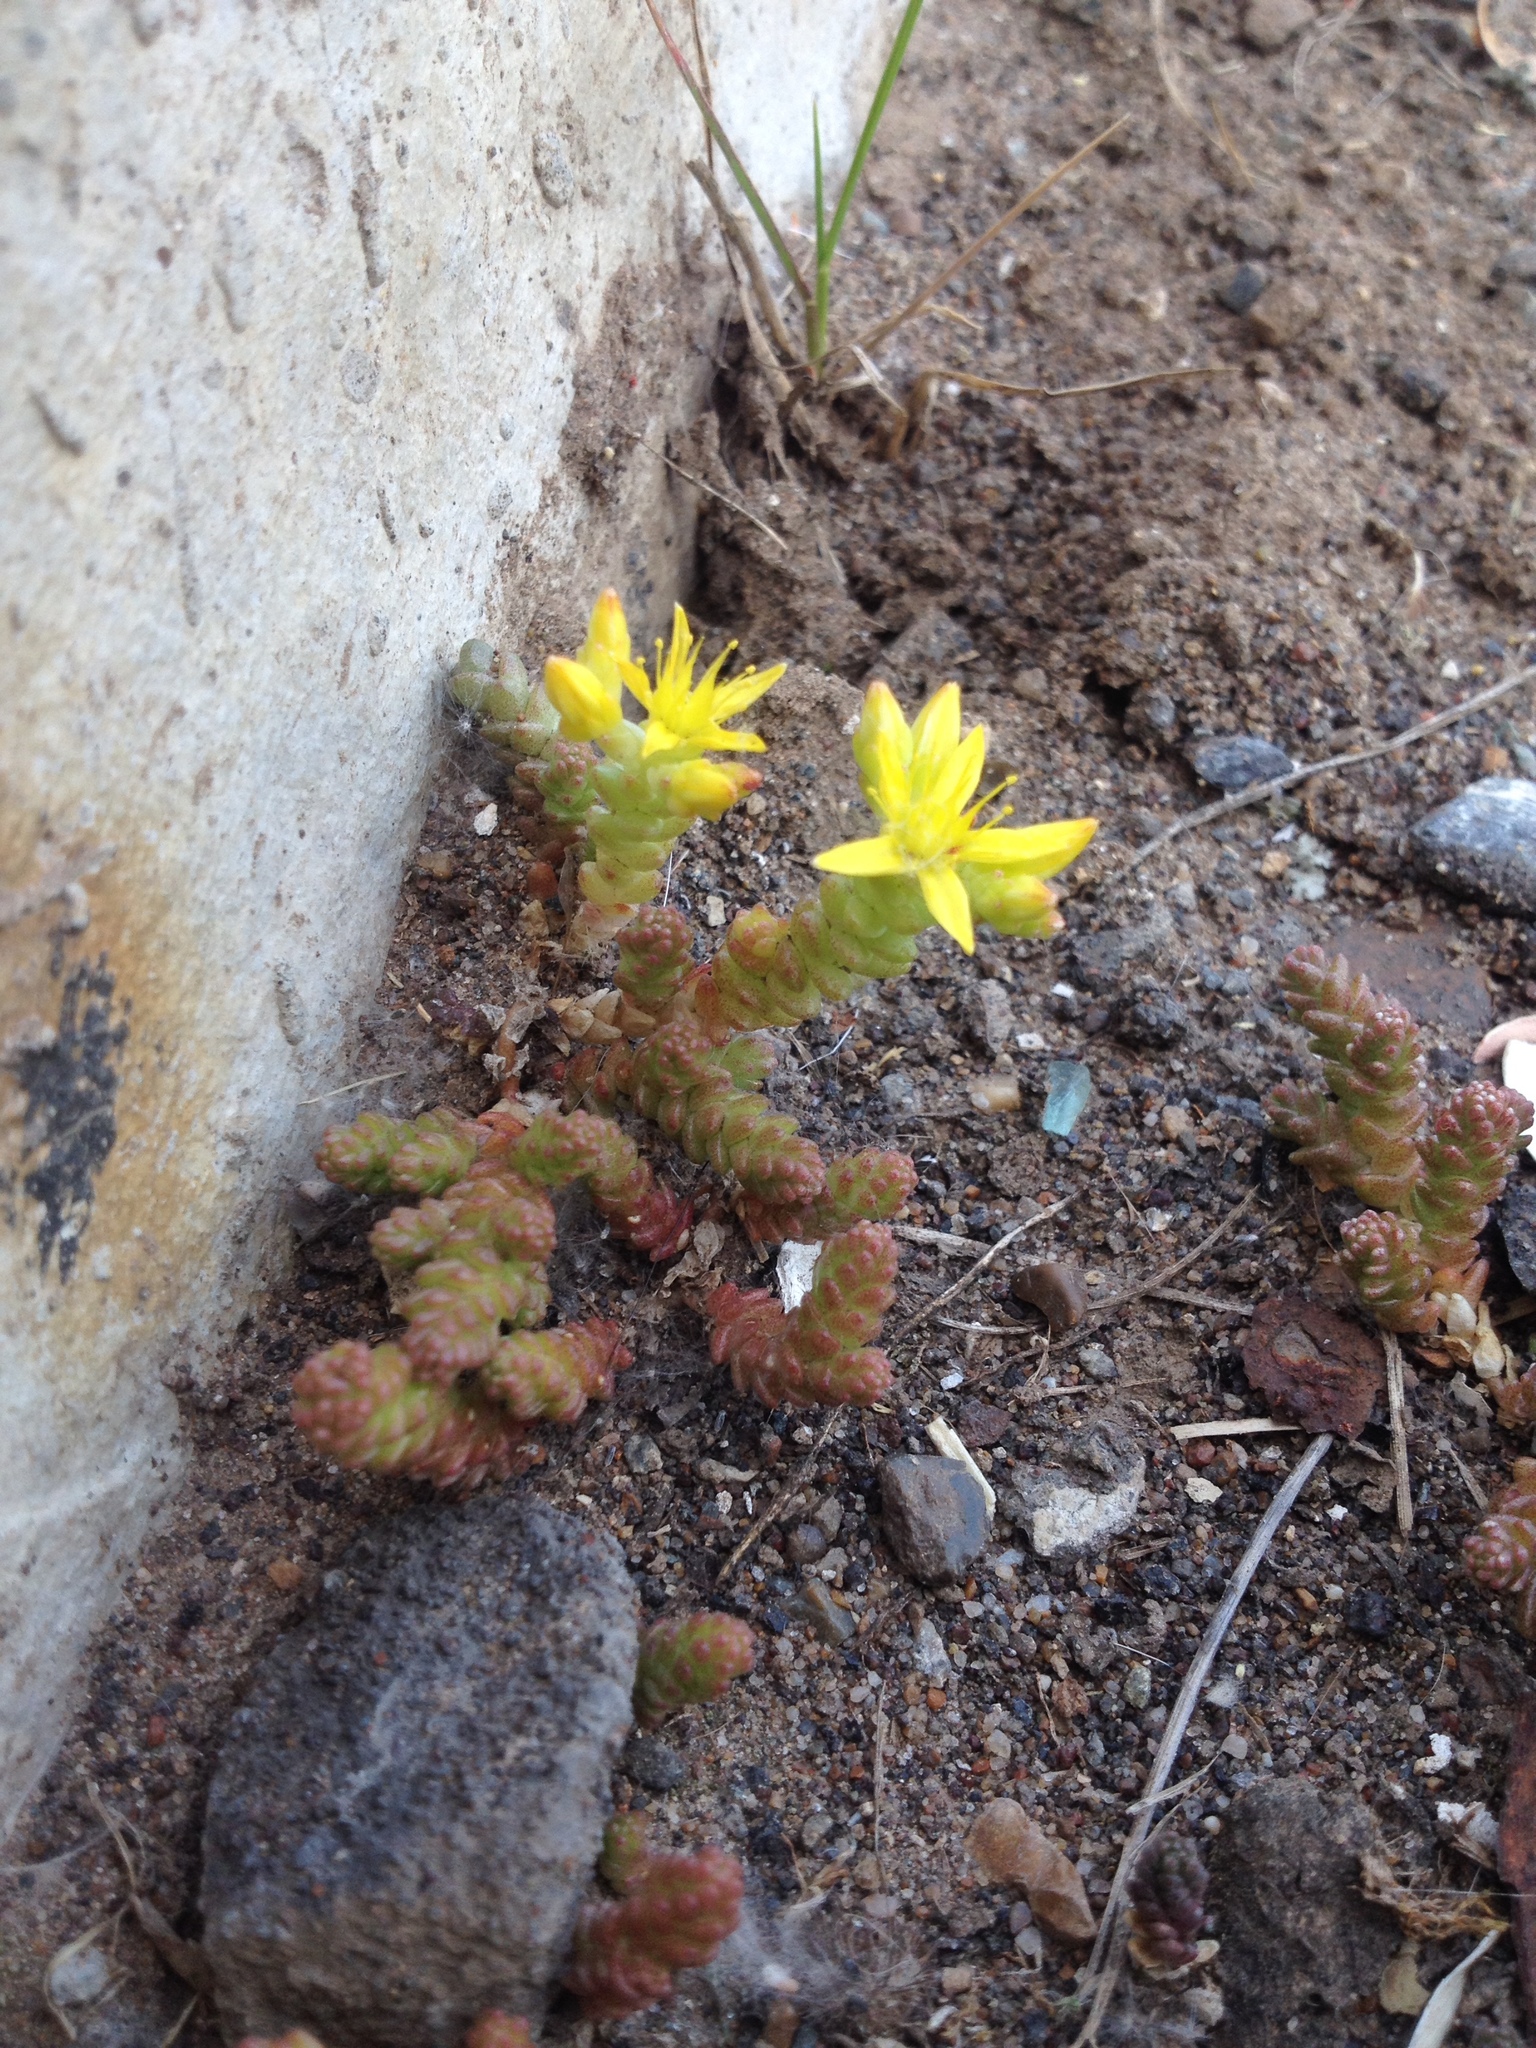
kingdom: Plantae
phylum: Tracheophyta
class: Magnoliopsida
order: Saxifragales
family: Crassulaceae
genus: Sedum
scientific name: Sedum acre
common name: Biting stonecrop
